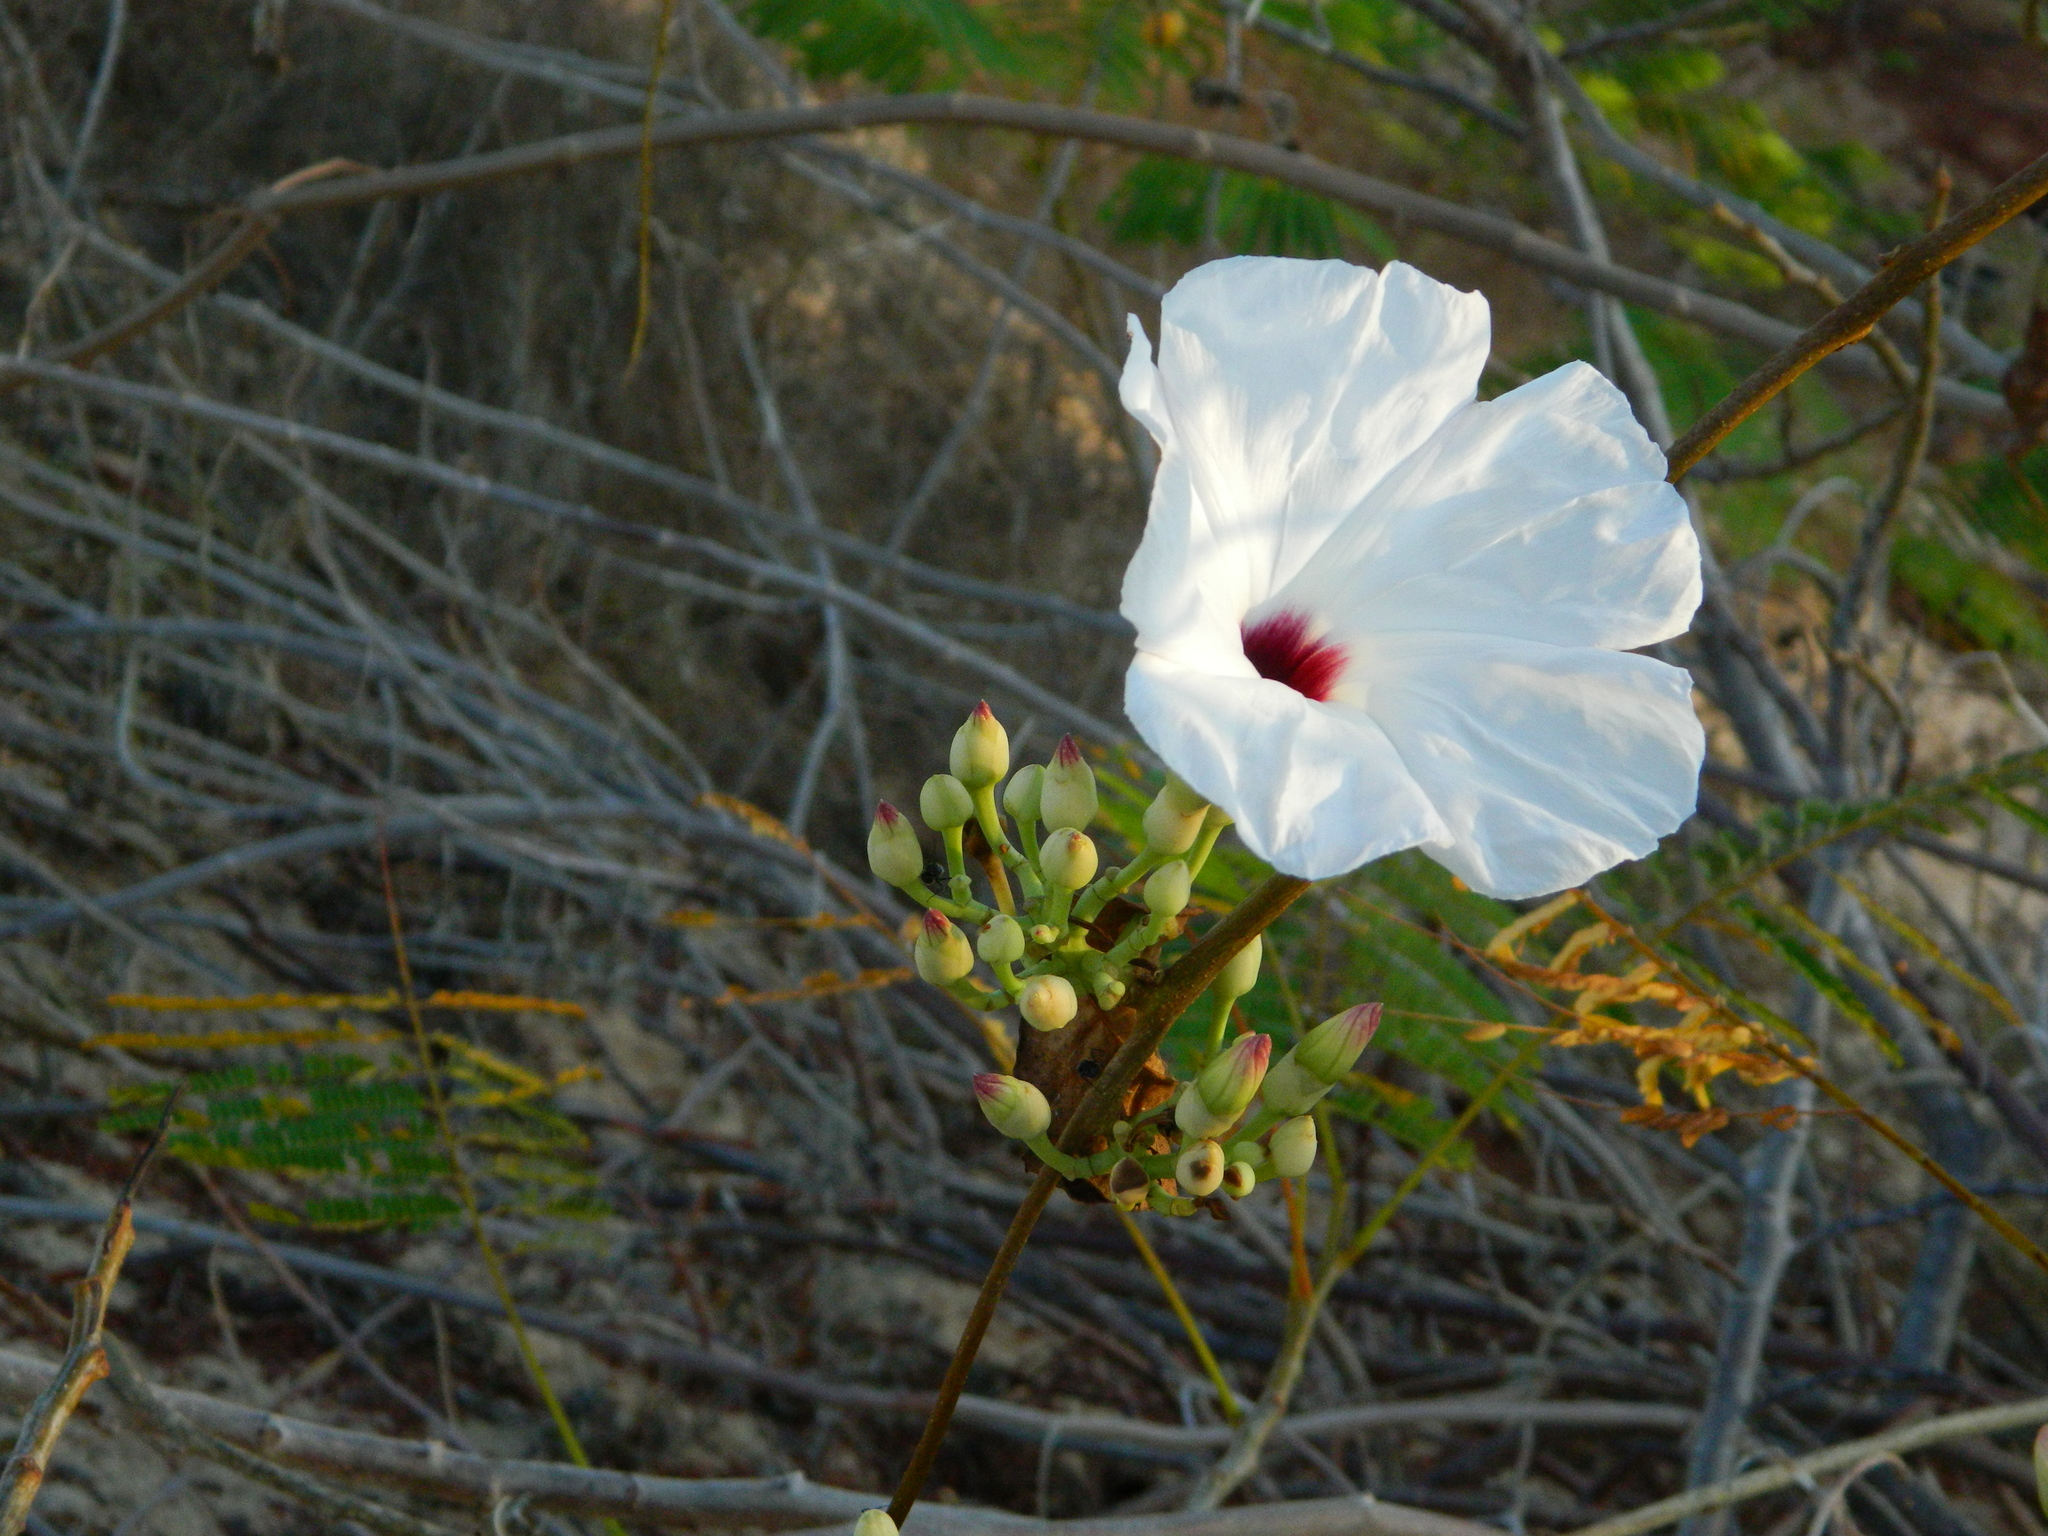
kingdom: Plantae
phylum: Tracheophyta
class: Magnoliopsida
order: Solanales
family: Convolvulaceae
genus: Ipomoea
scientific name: Ipomoea populina
